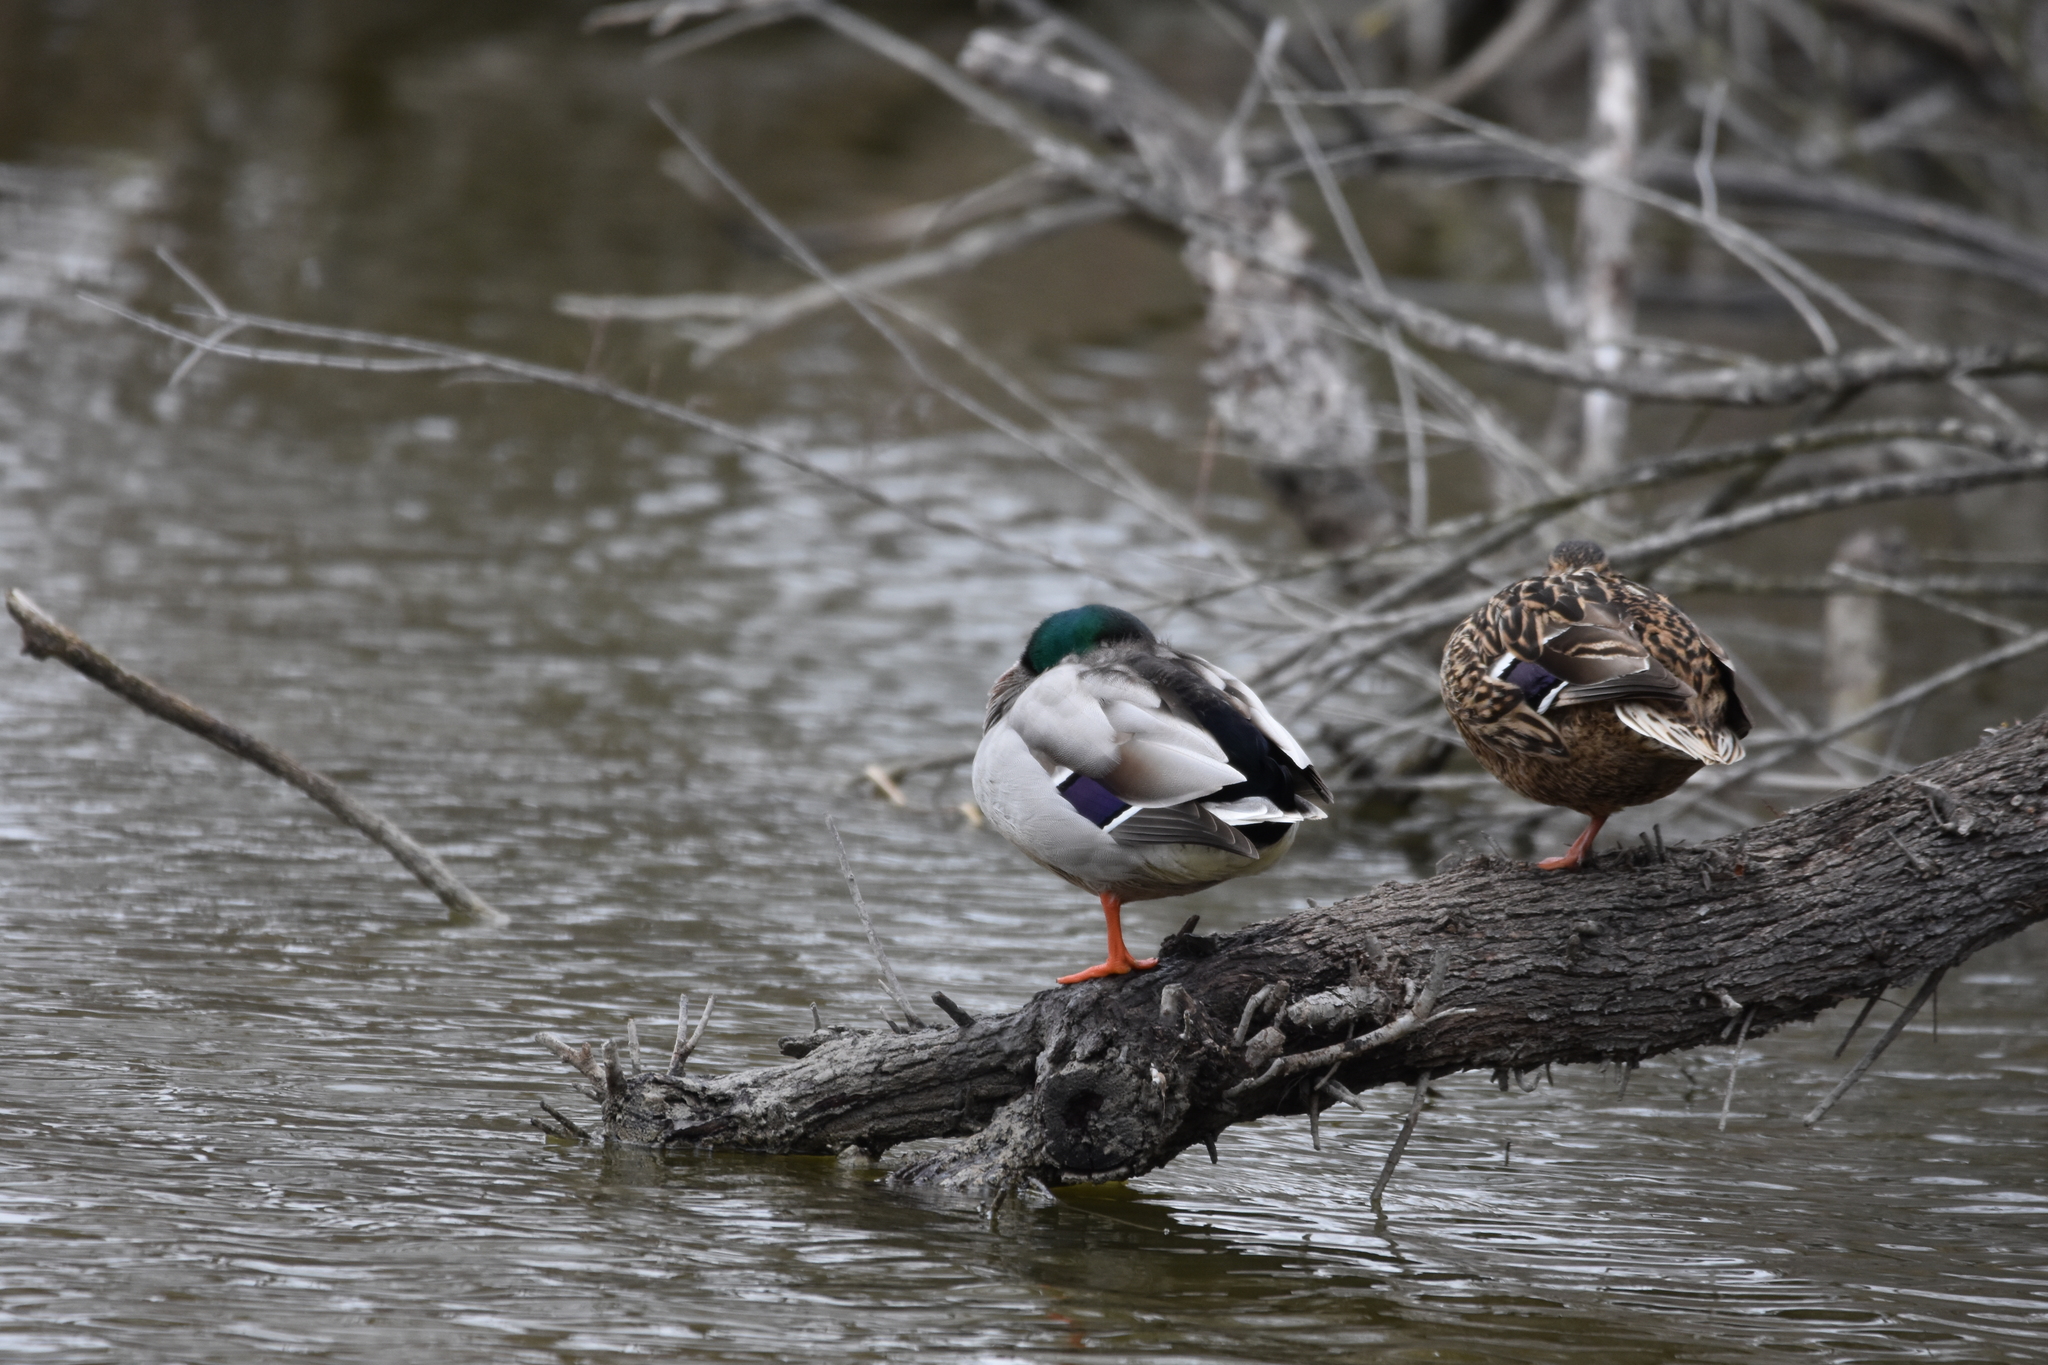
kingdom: Animalia
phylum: Chordata
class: Aves
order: Anseriformes
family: Anatidae
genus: Anas
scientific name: Anas platyrhynchos
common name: Mallard
